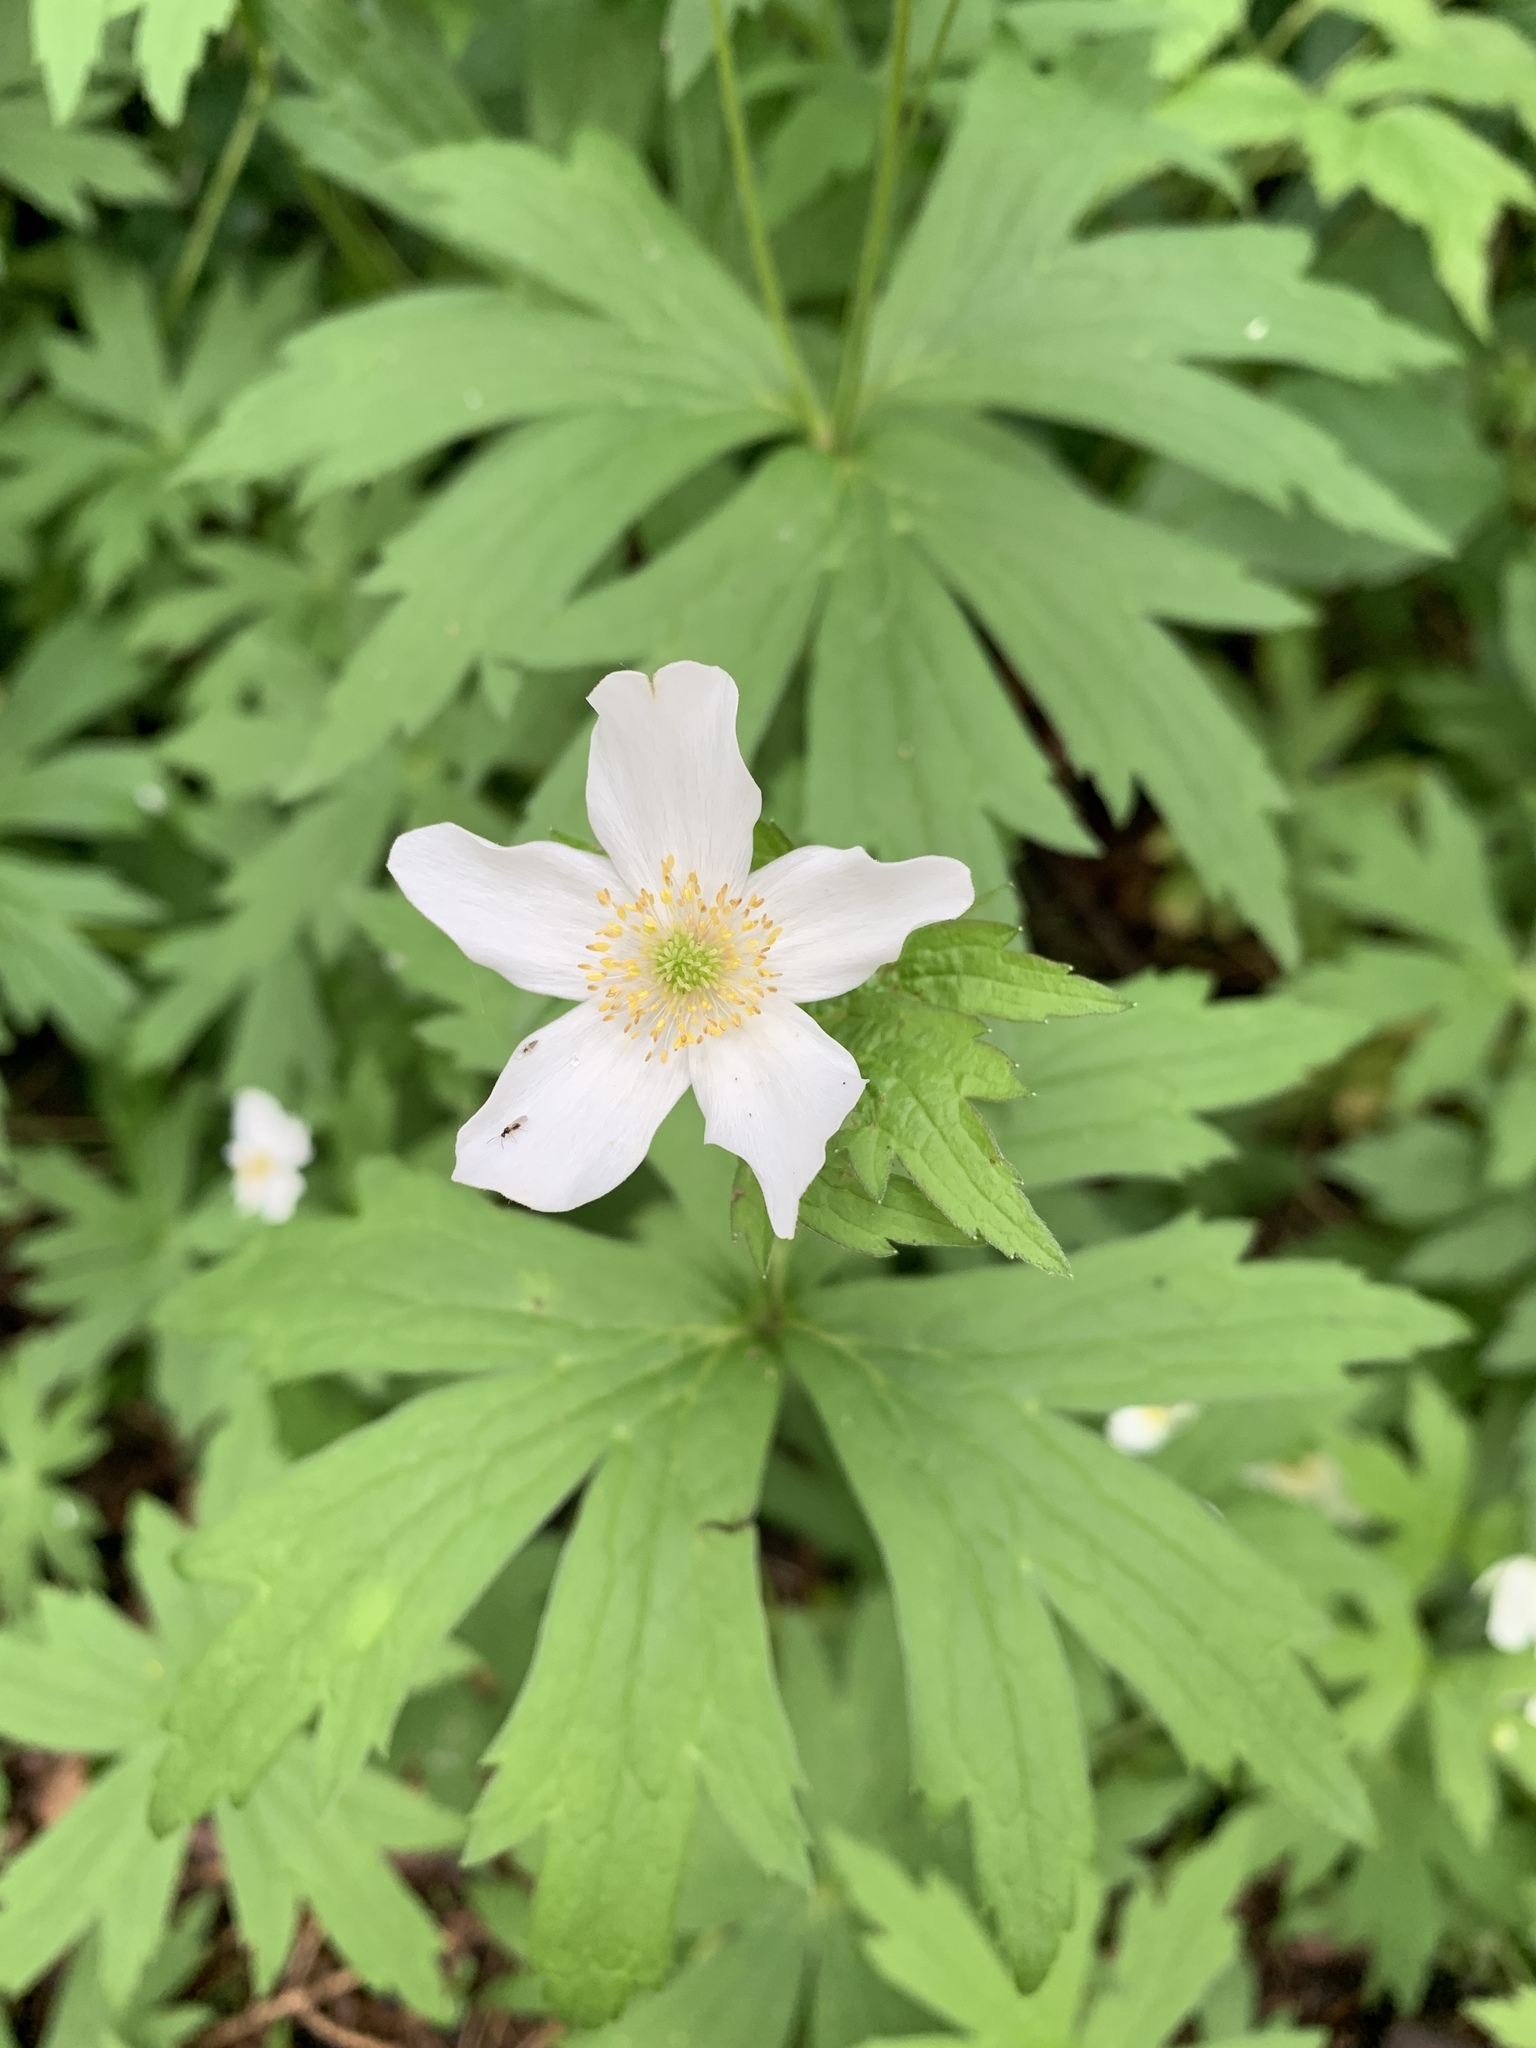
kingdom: Plantae
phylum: Tracheophyta
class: Magnoliopsida
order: Ranunculales
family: Ranunculaceae
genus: Anemonastrum
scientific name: Anemonastrum canadense
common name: Canada anemone
